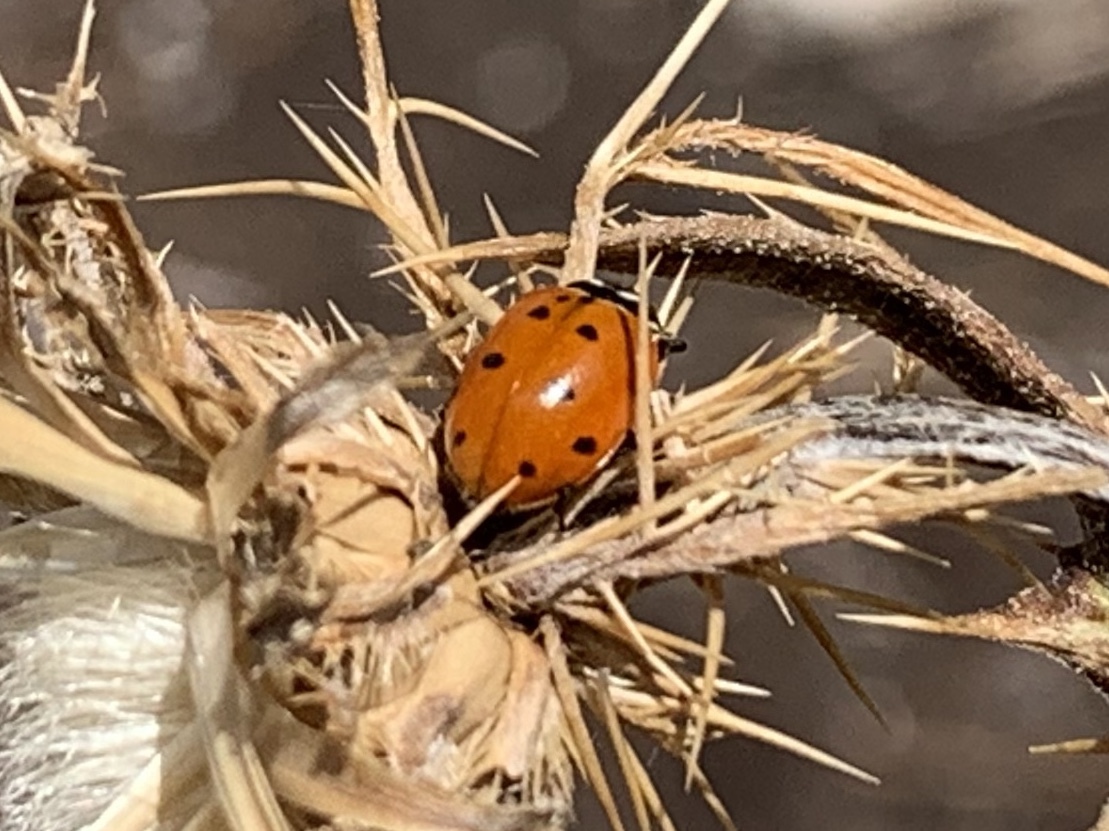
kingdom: Animalia
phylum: Arthropoda
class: Insecta
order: Coleoptera
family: Coccinellidae
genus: Hippodamia
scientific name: Hippodamia convergens
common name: Convergent lady beetle
